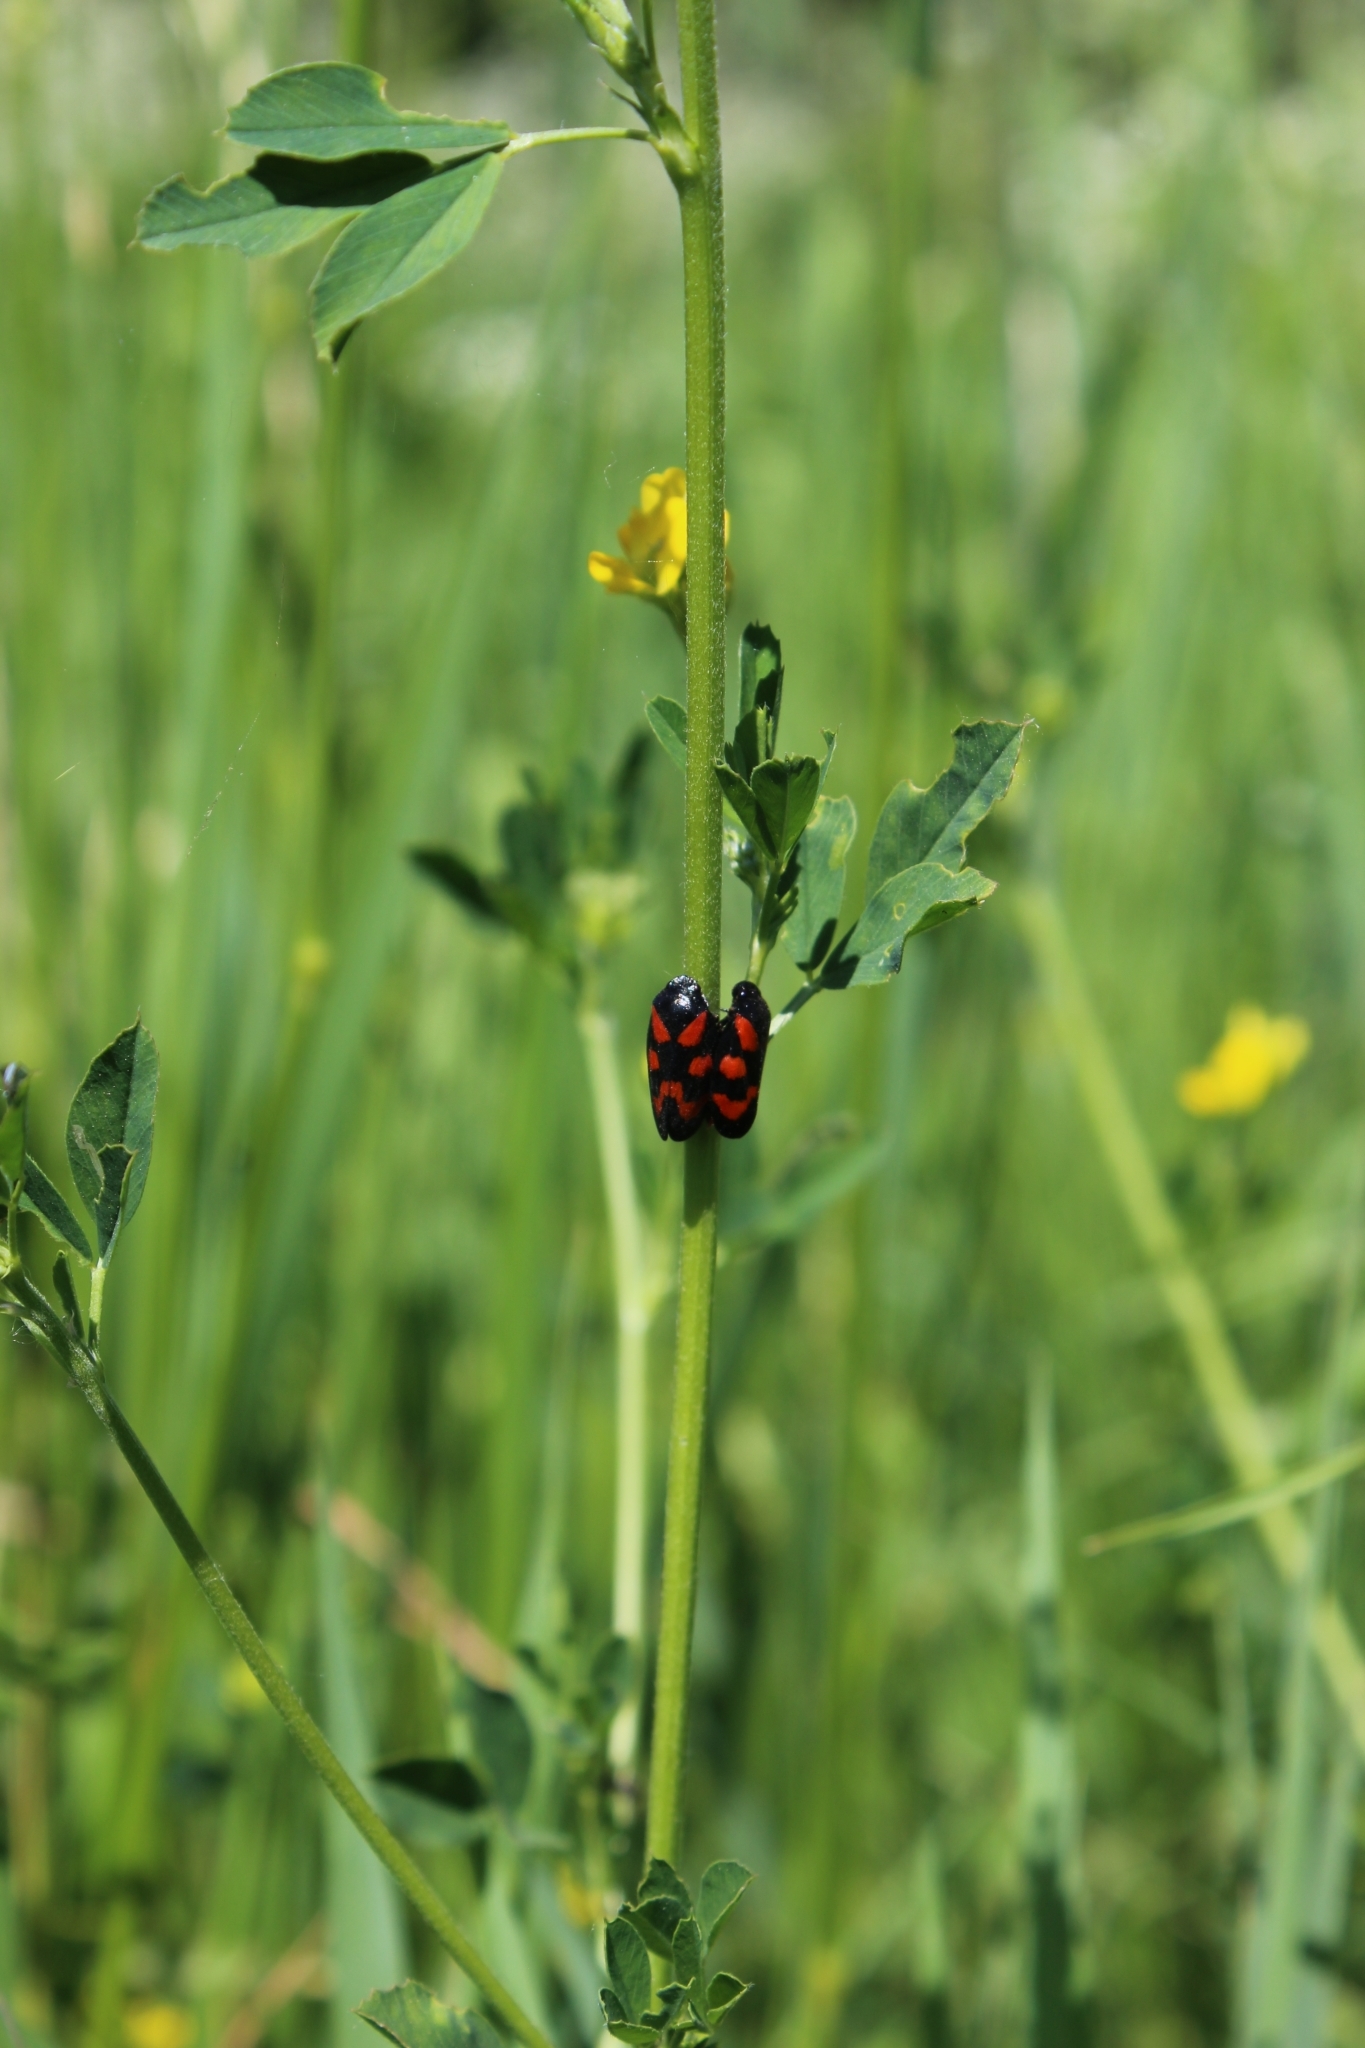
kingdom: Animalia
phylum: Arthropoda
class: Insecta
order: Hemiptera
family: Cercopidae
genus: Cercopis
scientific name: Cercopis vulnerata
